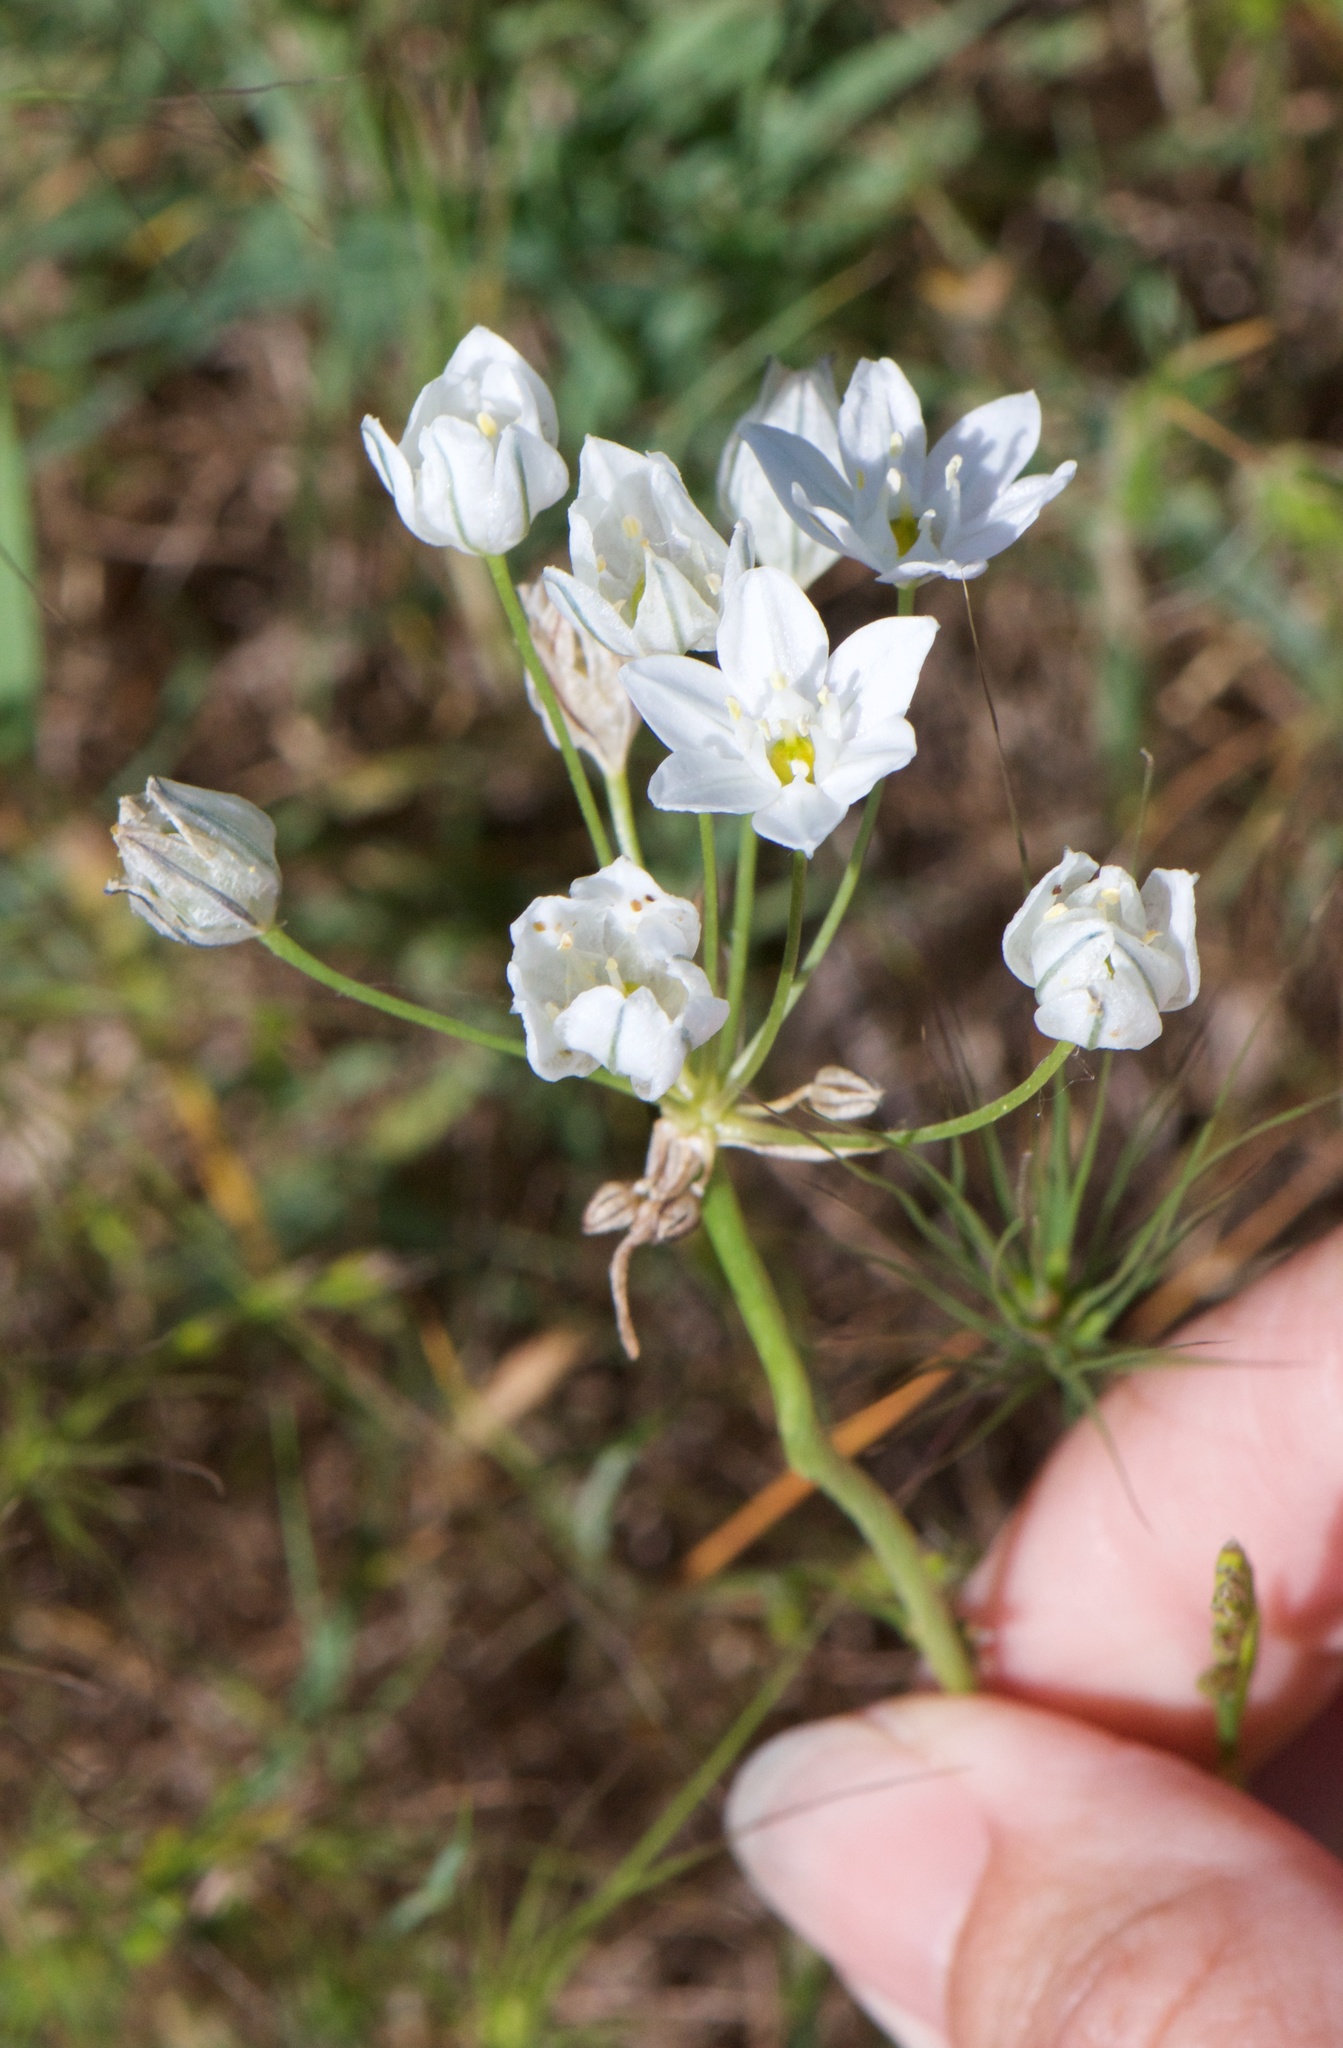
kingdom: Plantae
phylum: Tracheophyta
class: Liliopsida
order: Asparagales
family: Asparagaceae
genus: Triteleia
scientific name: Triteleia hyacinthina
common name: White brodiaea
